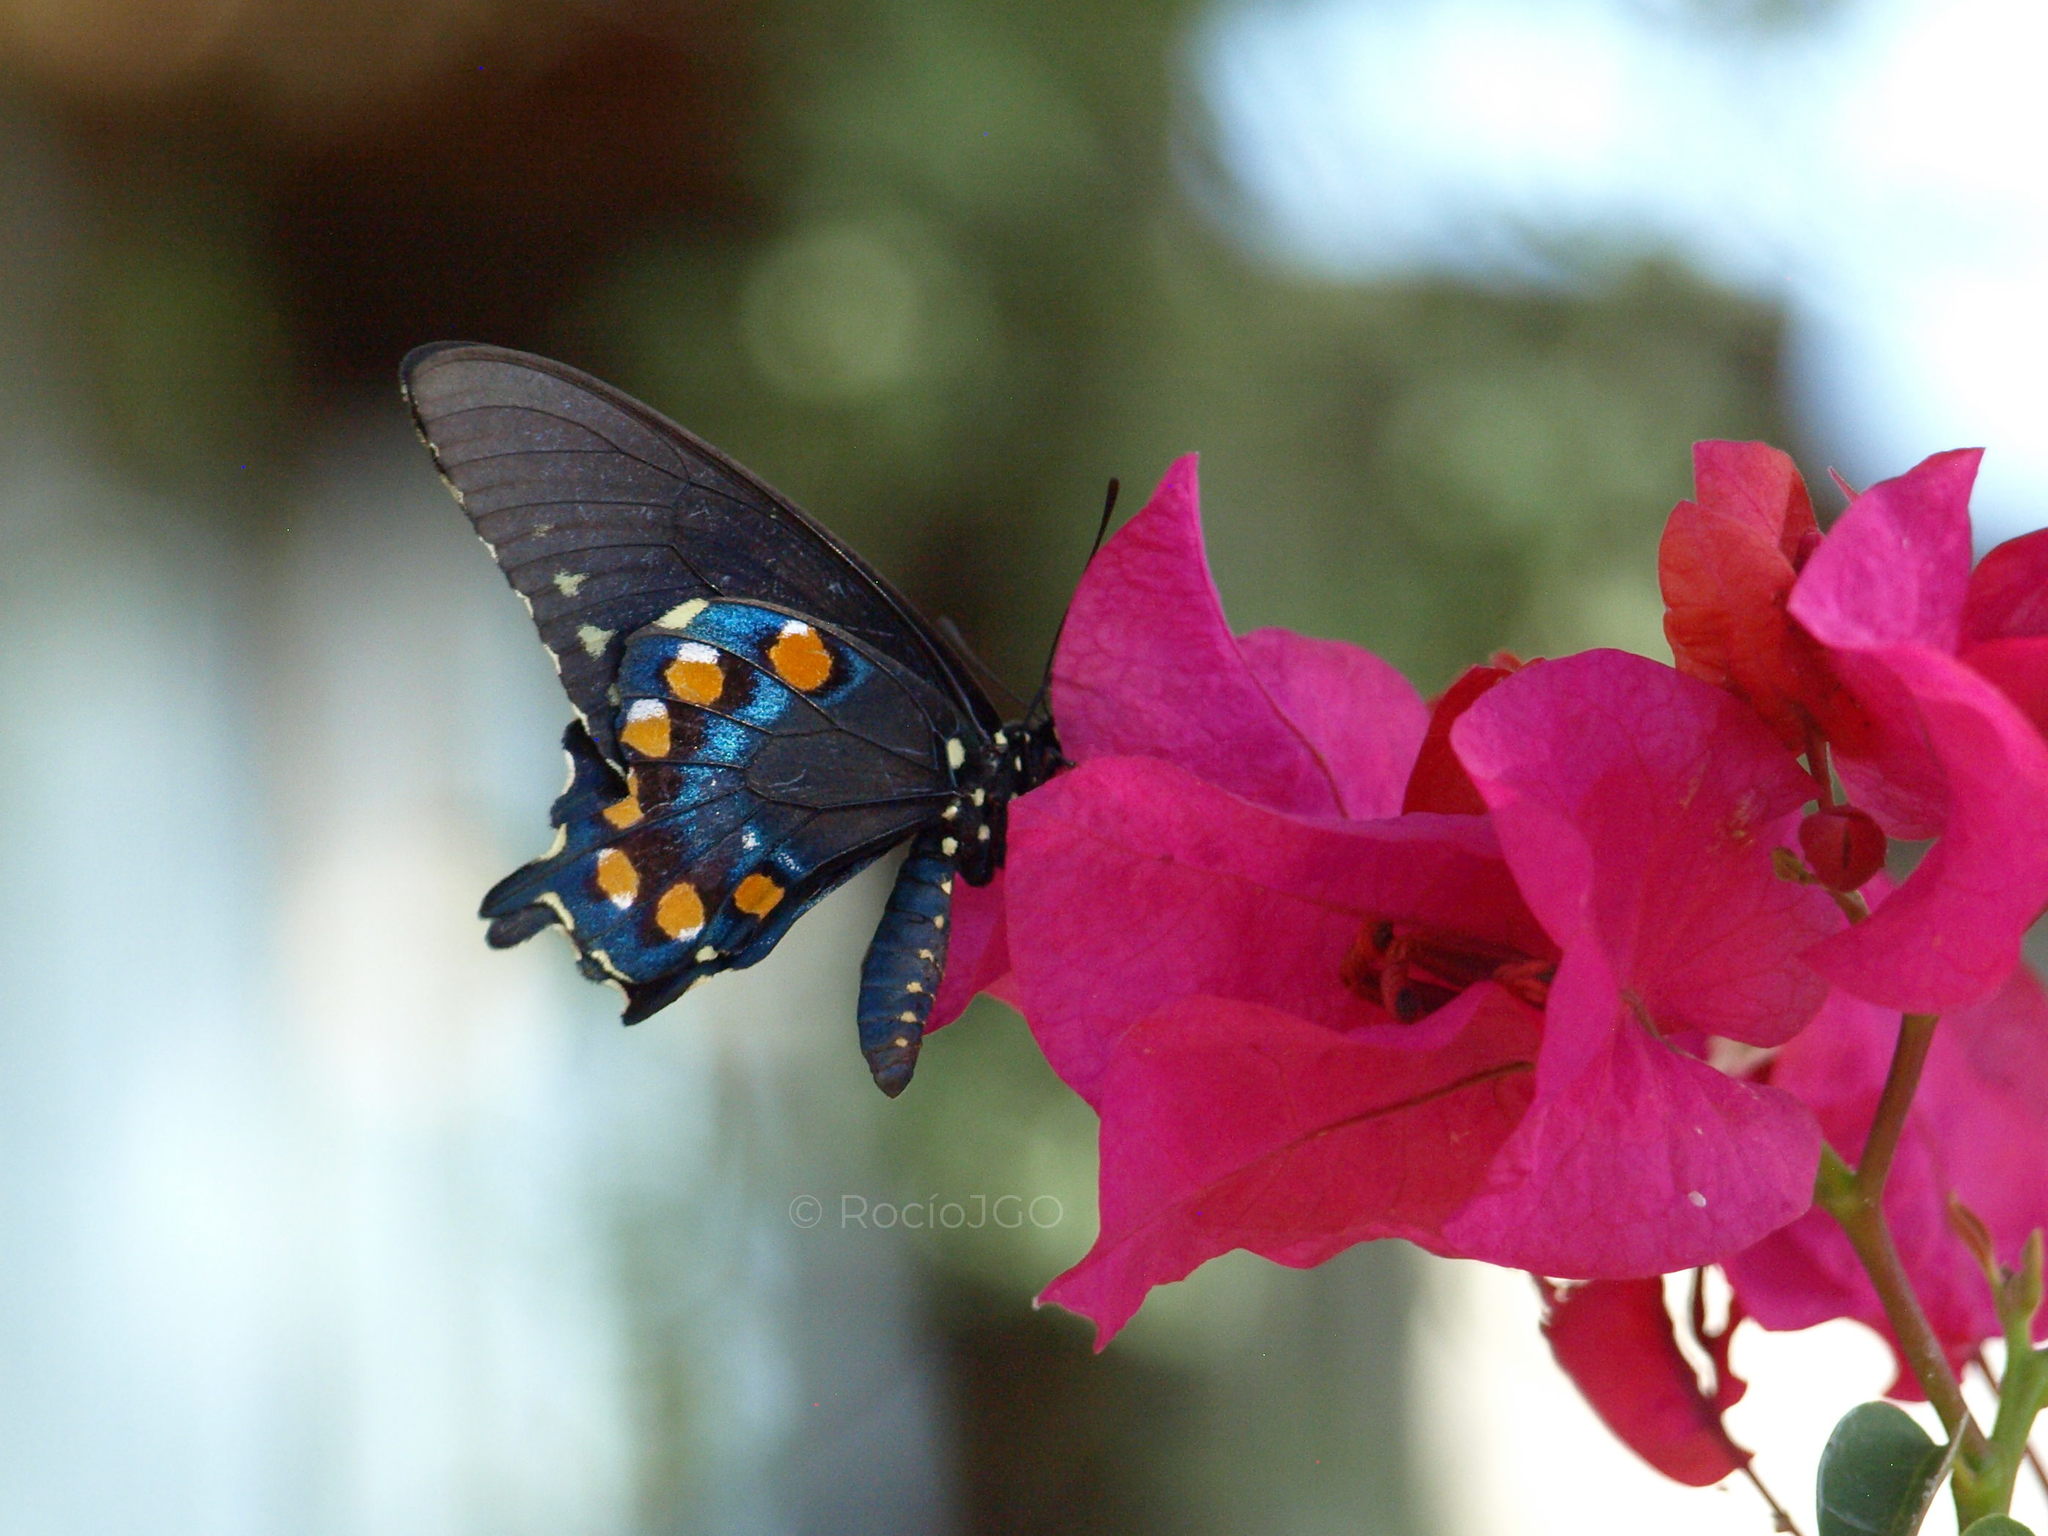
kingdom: Animalia
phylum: Arthropoda
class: Insecta
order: Lepidoptera
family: Papilionidae
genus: Battus
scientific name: Battus philenor
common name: Pipevine swallowtail
